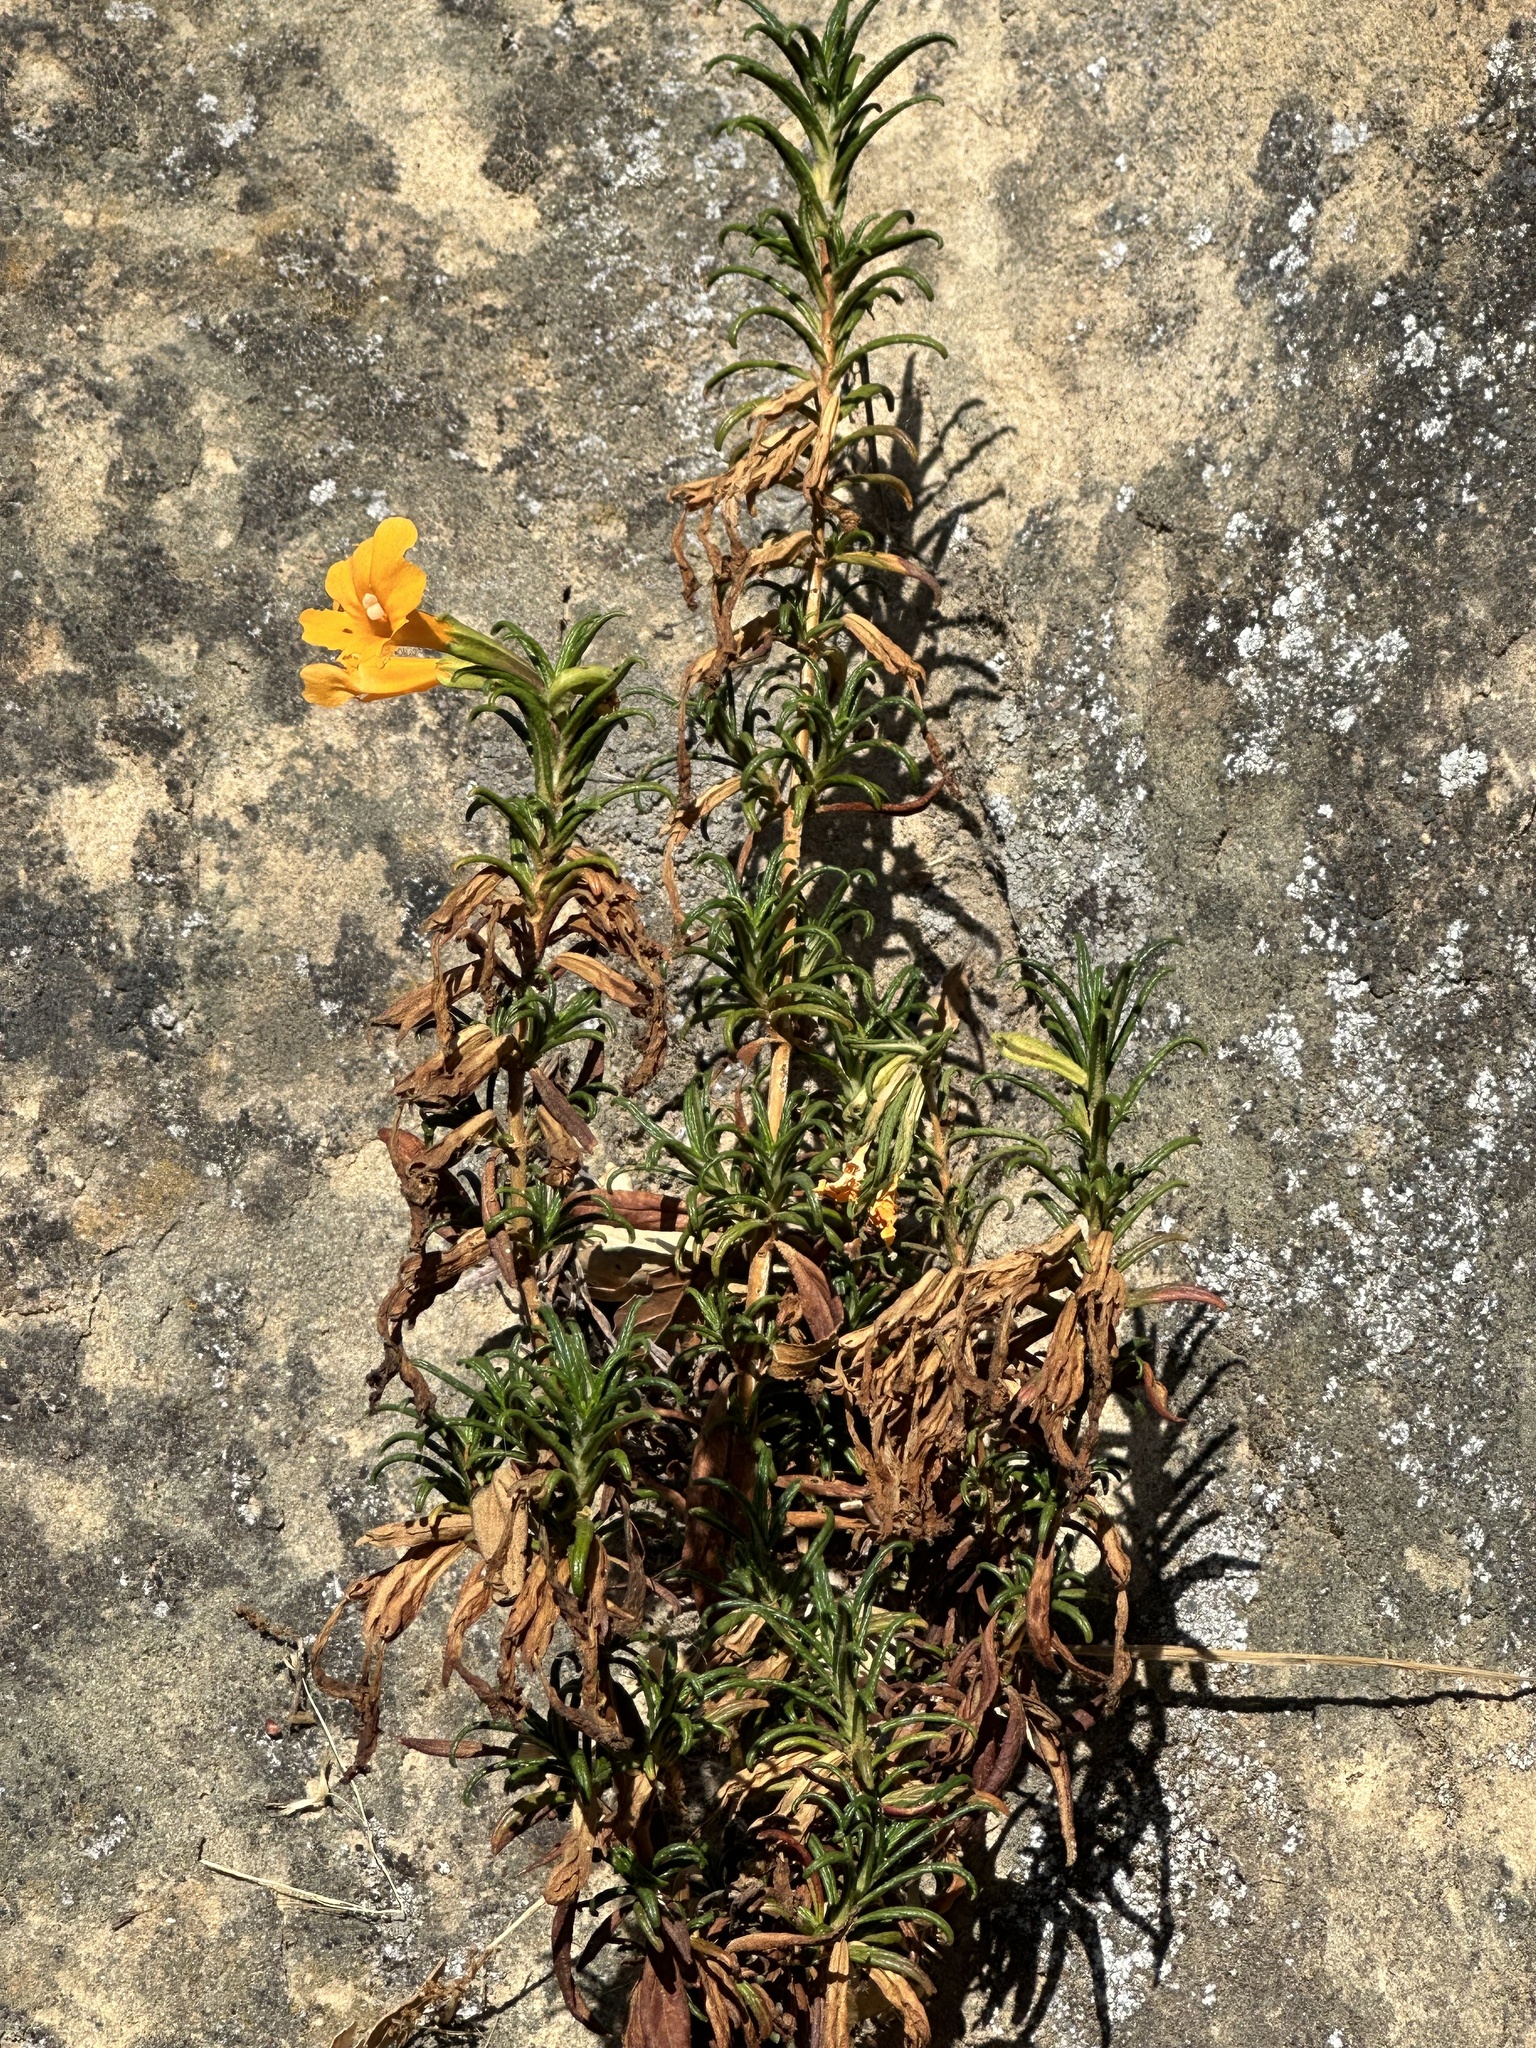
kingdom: Plantae
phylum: Tracheophyta
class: Magnoliopsida
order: Lamiales
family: Phrymaceae
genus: Diplacus
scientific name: Diplacus aurantiacus
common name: Bush monkey-flower
